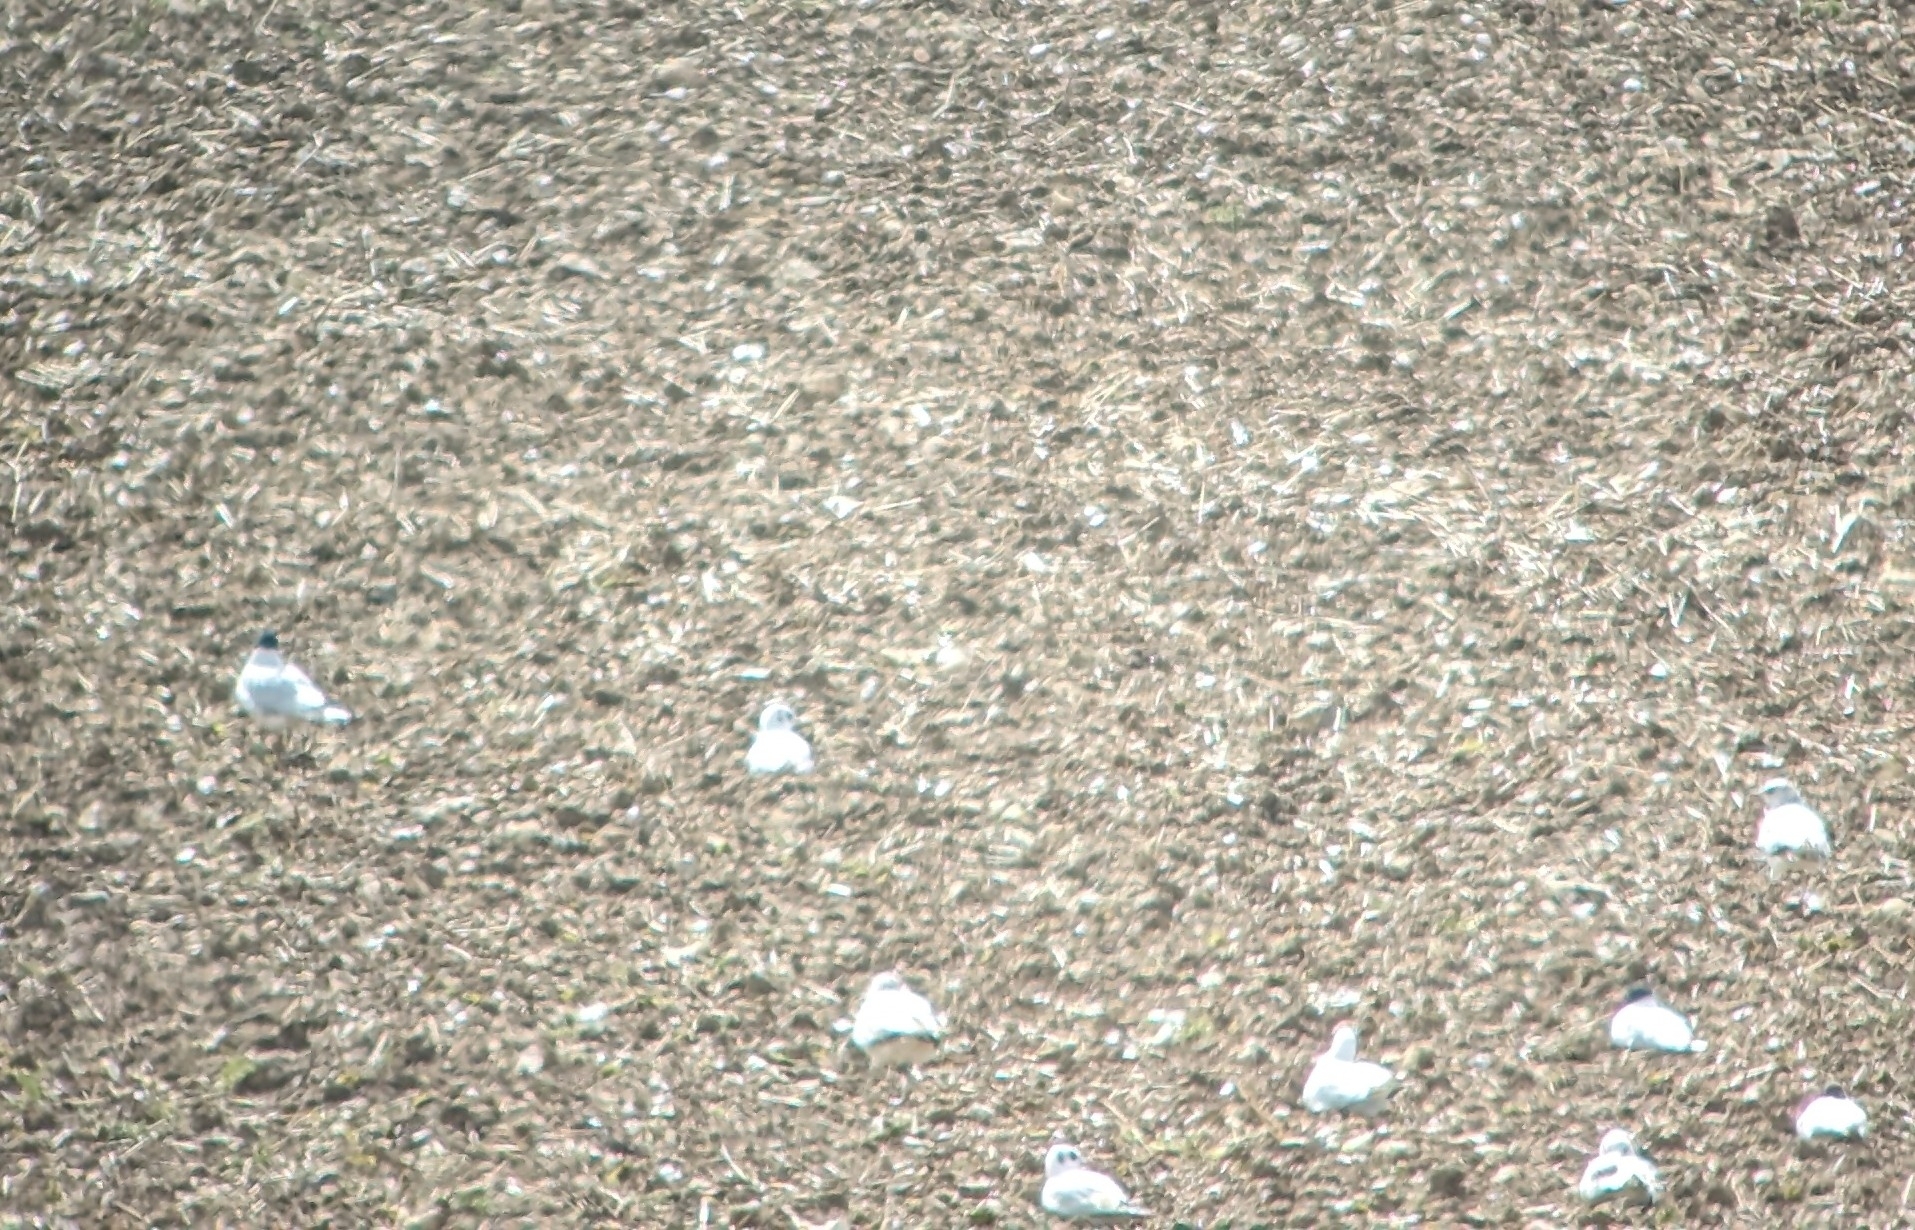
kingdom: Animalia
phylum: Chordata
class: Aves
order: Charadriiformes
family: Laridae
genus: Ichthyaetus
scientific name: Ichthyaetus melanocephalus
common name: Mediterranean gull
